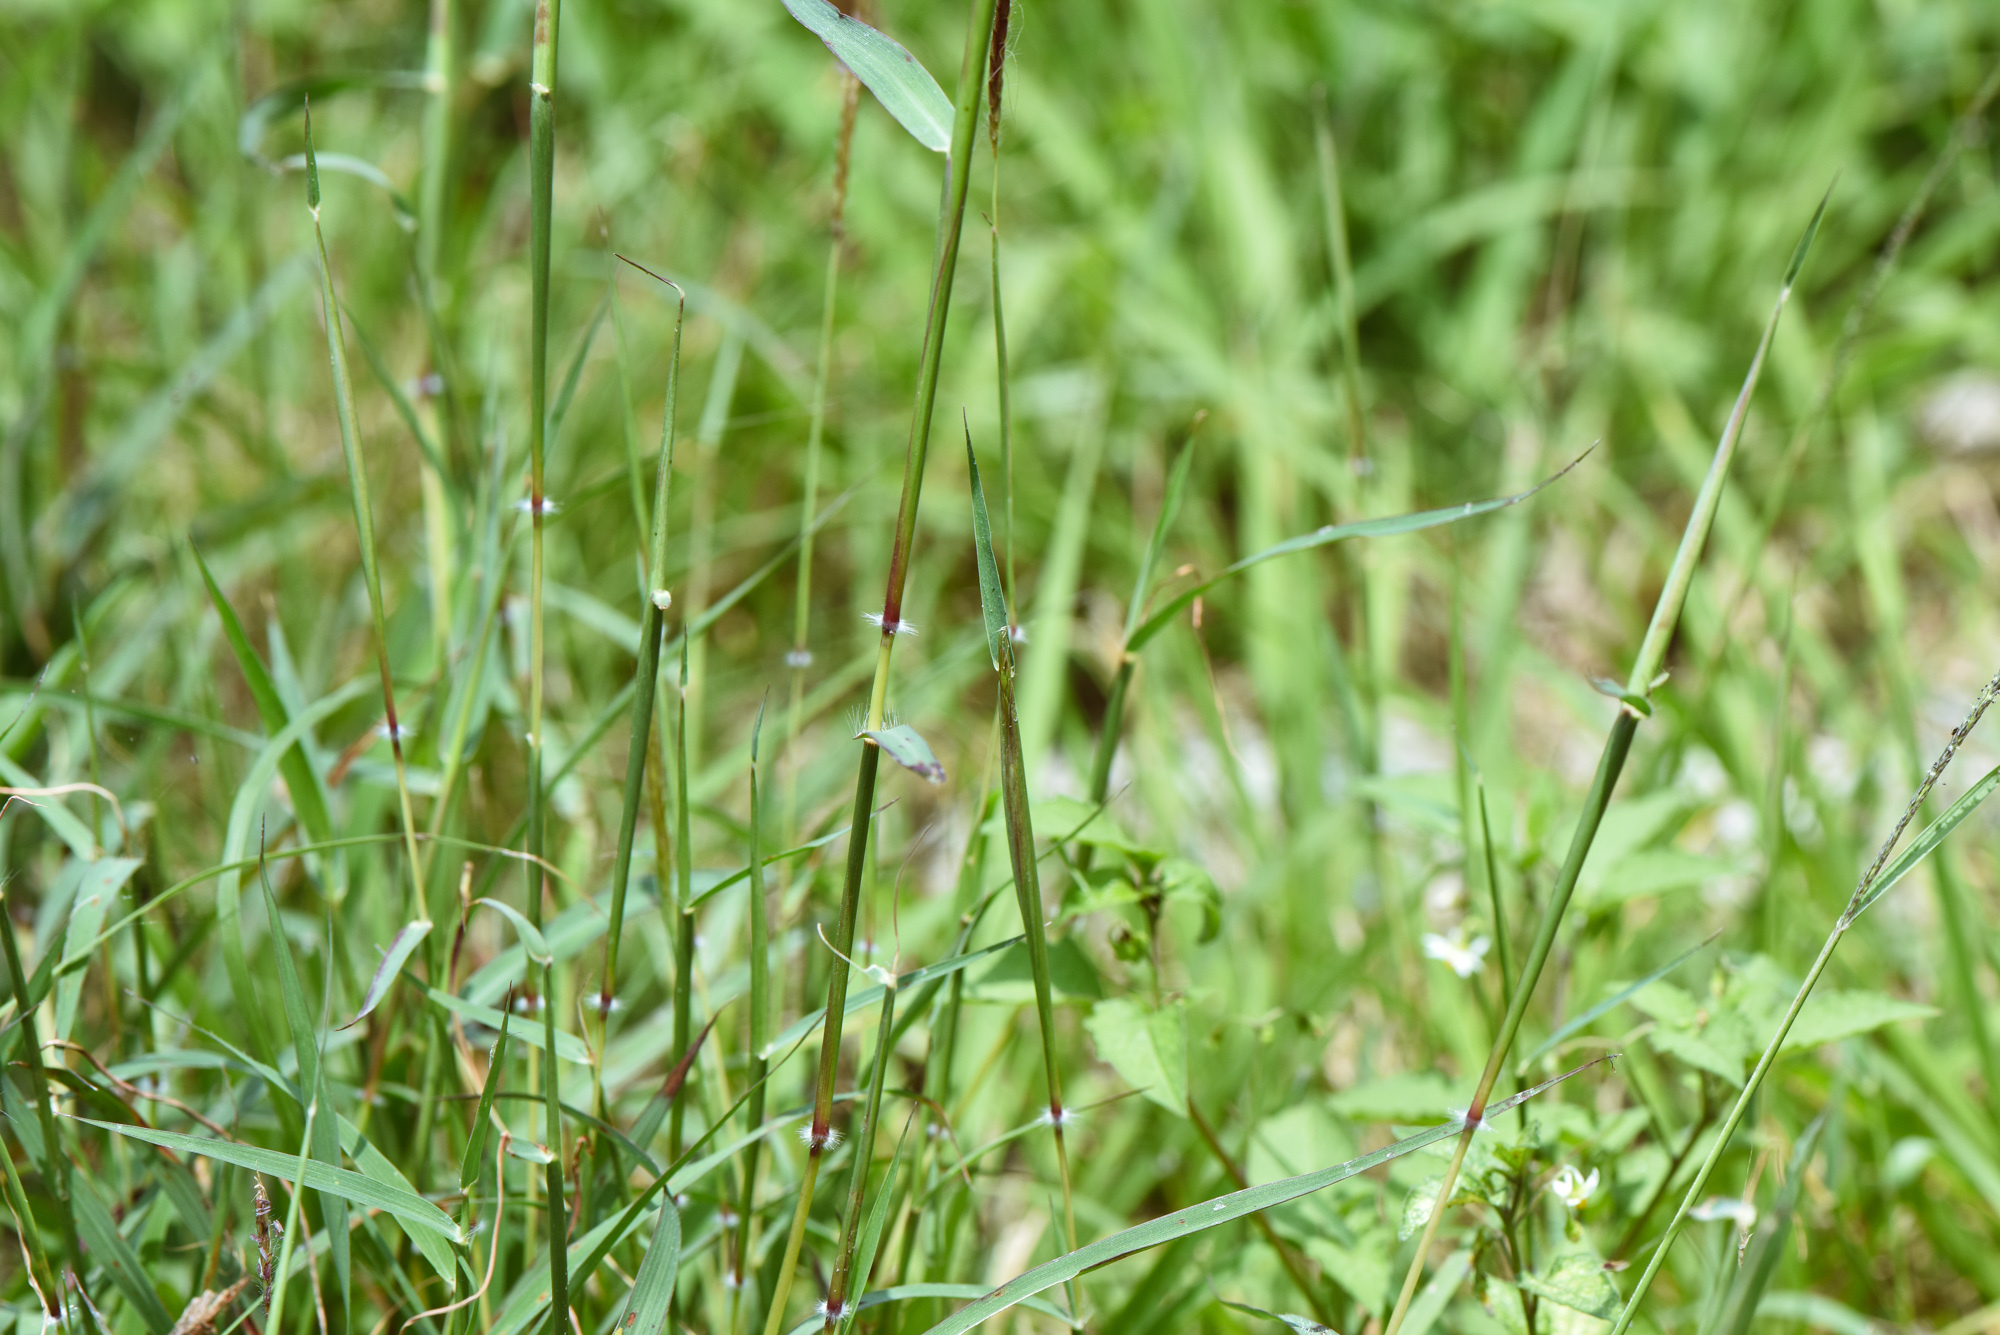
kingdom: Plantae
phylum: Tracheophyta
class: Liliopsida
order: Poales
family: Poaceae
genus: Dichanthium
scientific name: Dichanthium annulatum
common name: Kleberg's bluestem
